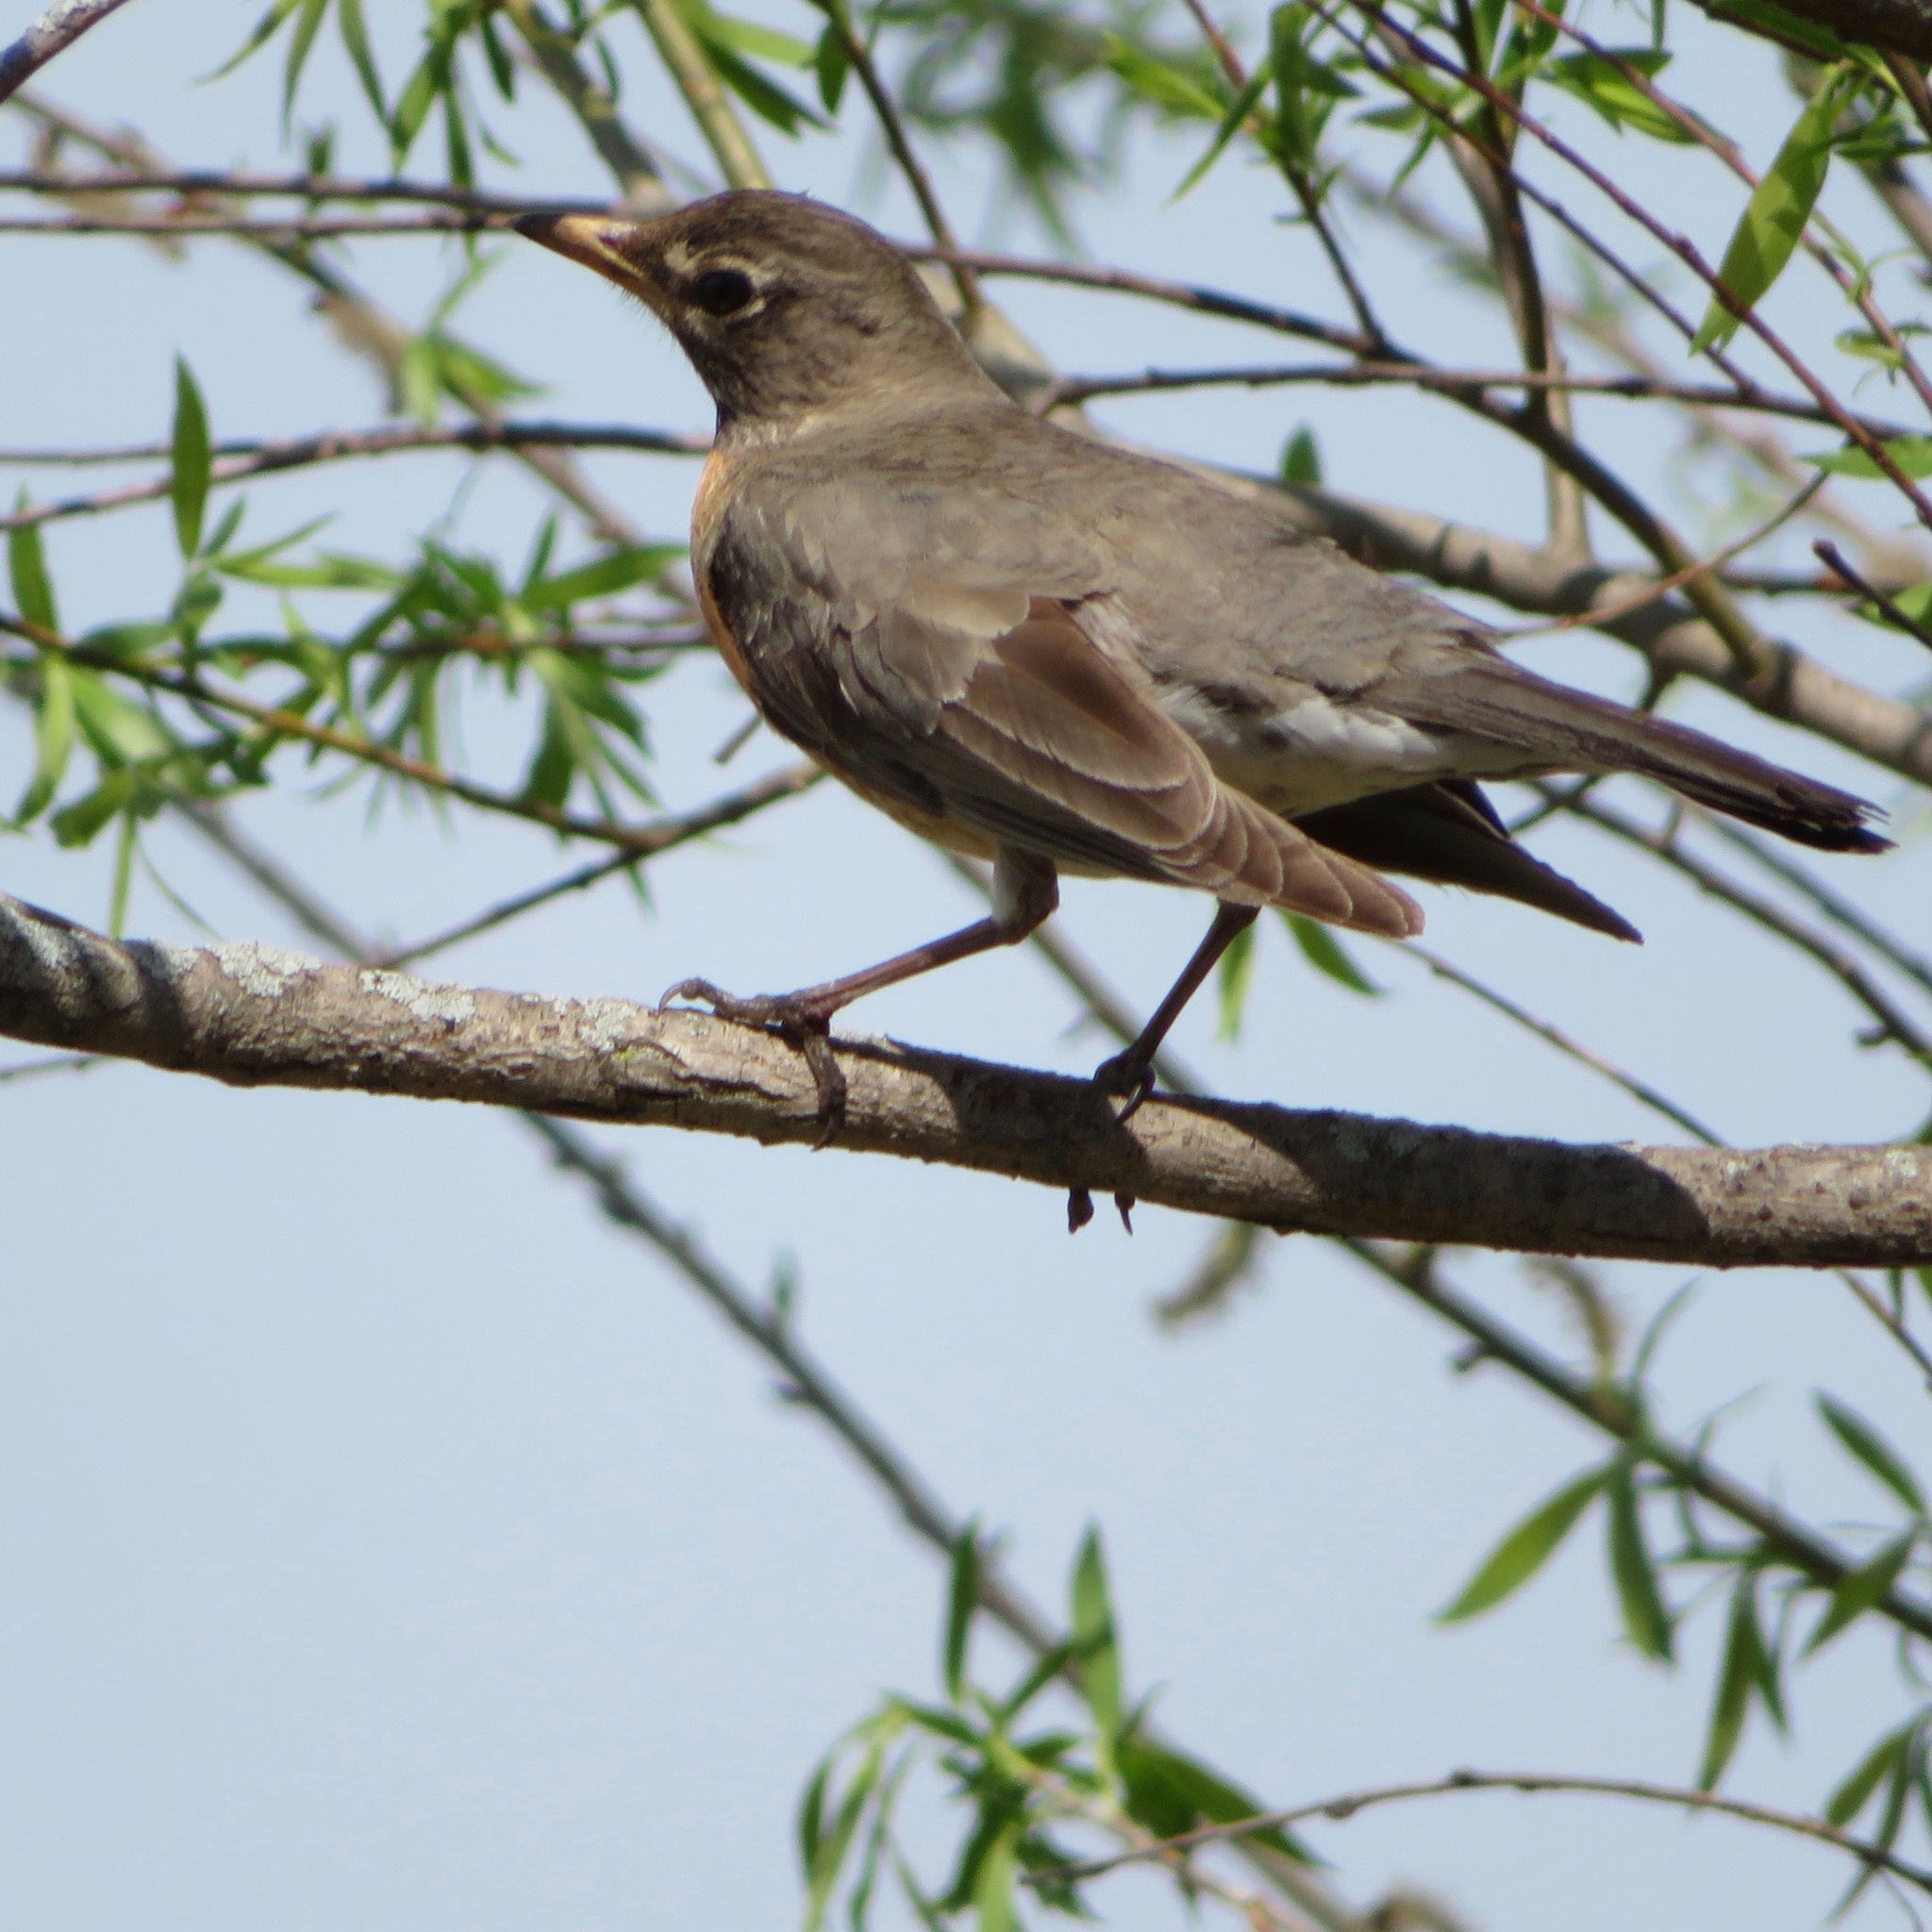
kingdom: Animalia
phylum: Chordata
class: Aves
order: Passeriformes
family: Turdidae
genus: Turdus
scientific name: Turdus migratorius
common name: American robin
